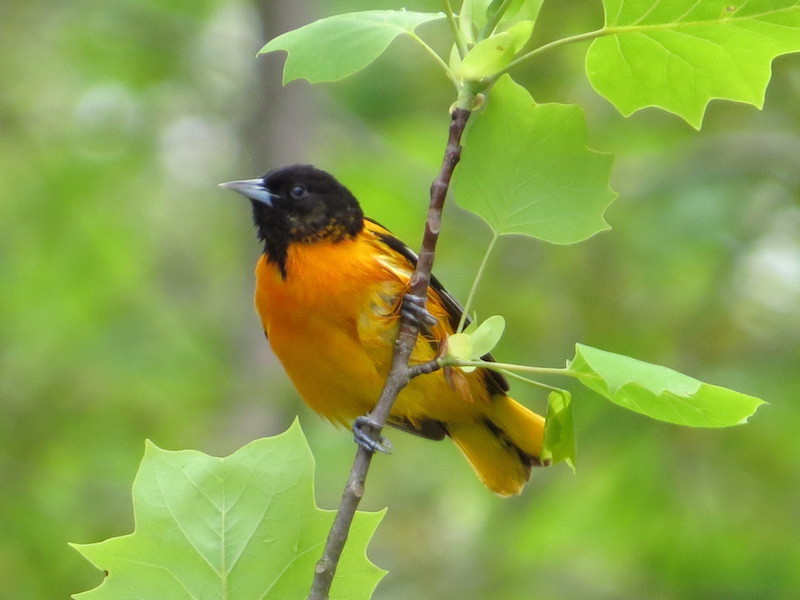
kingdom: Animalia
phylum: Chordata
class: Aves
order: Passeriformes
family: Icteridae
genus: Icterus
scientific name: Icterus galbula
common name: Baltimore oriole
